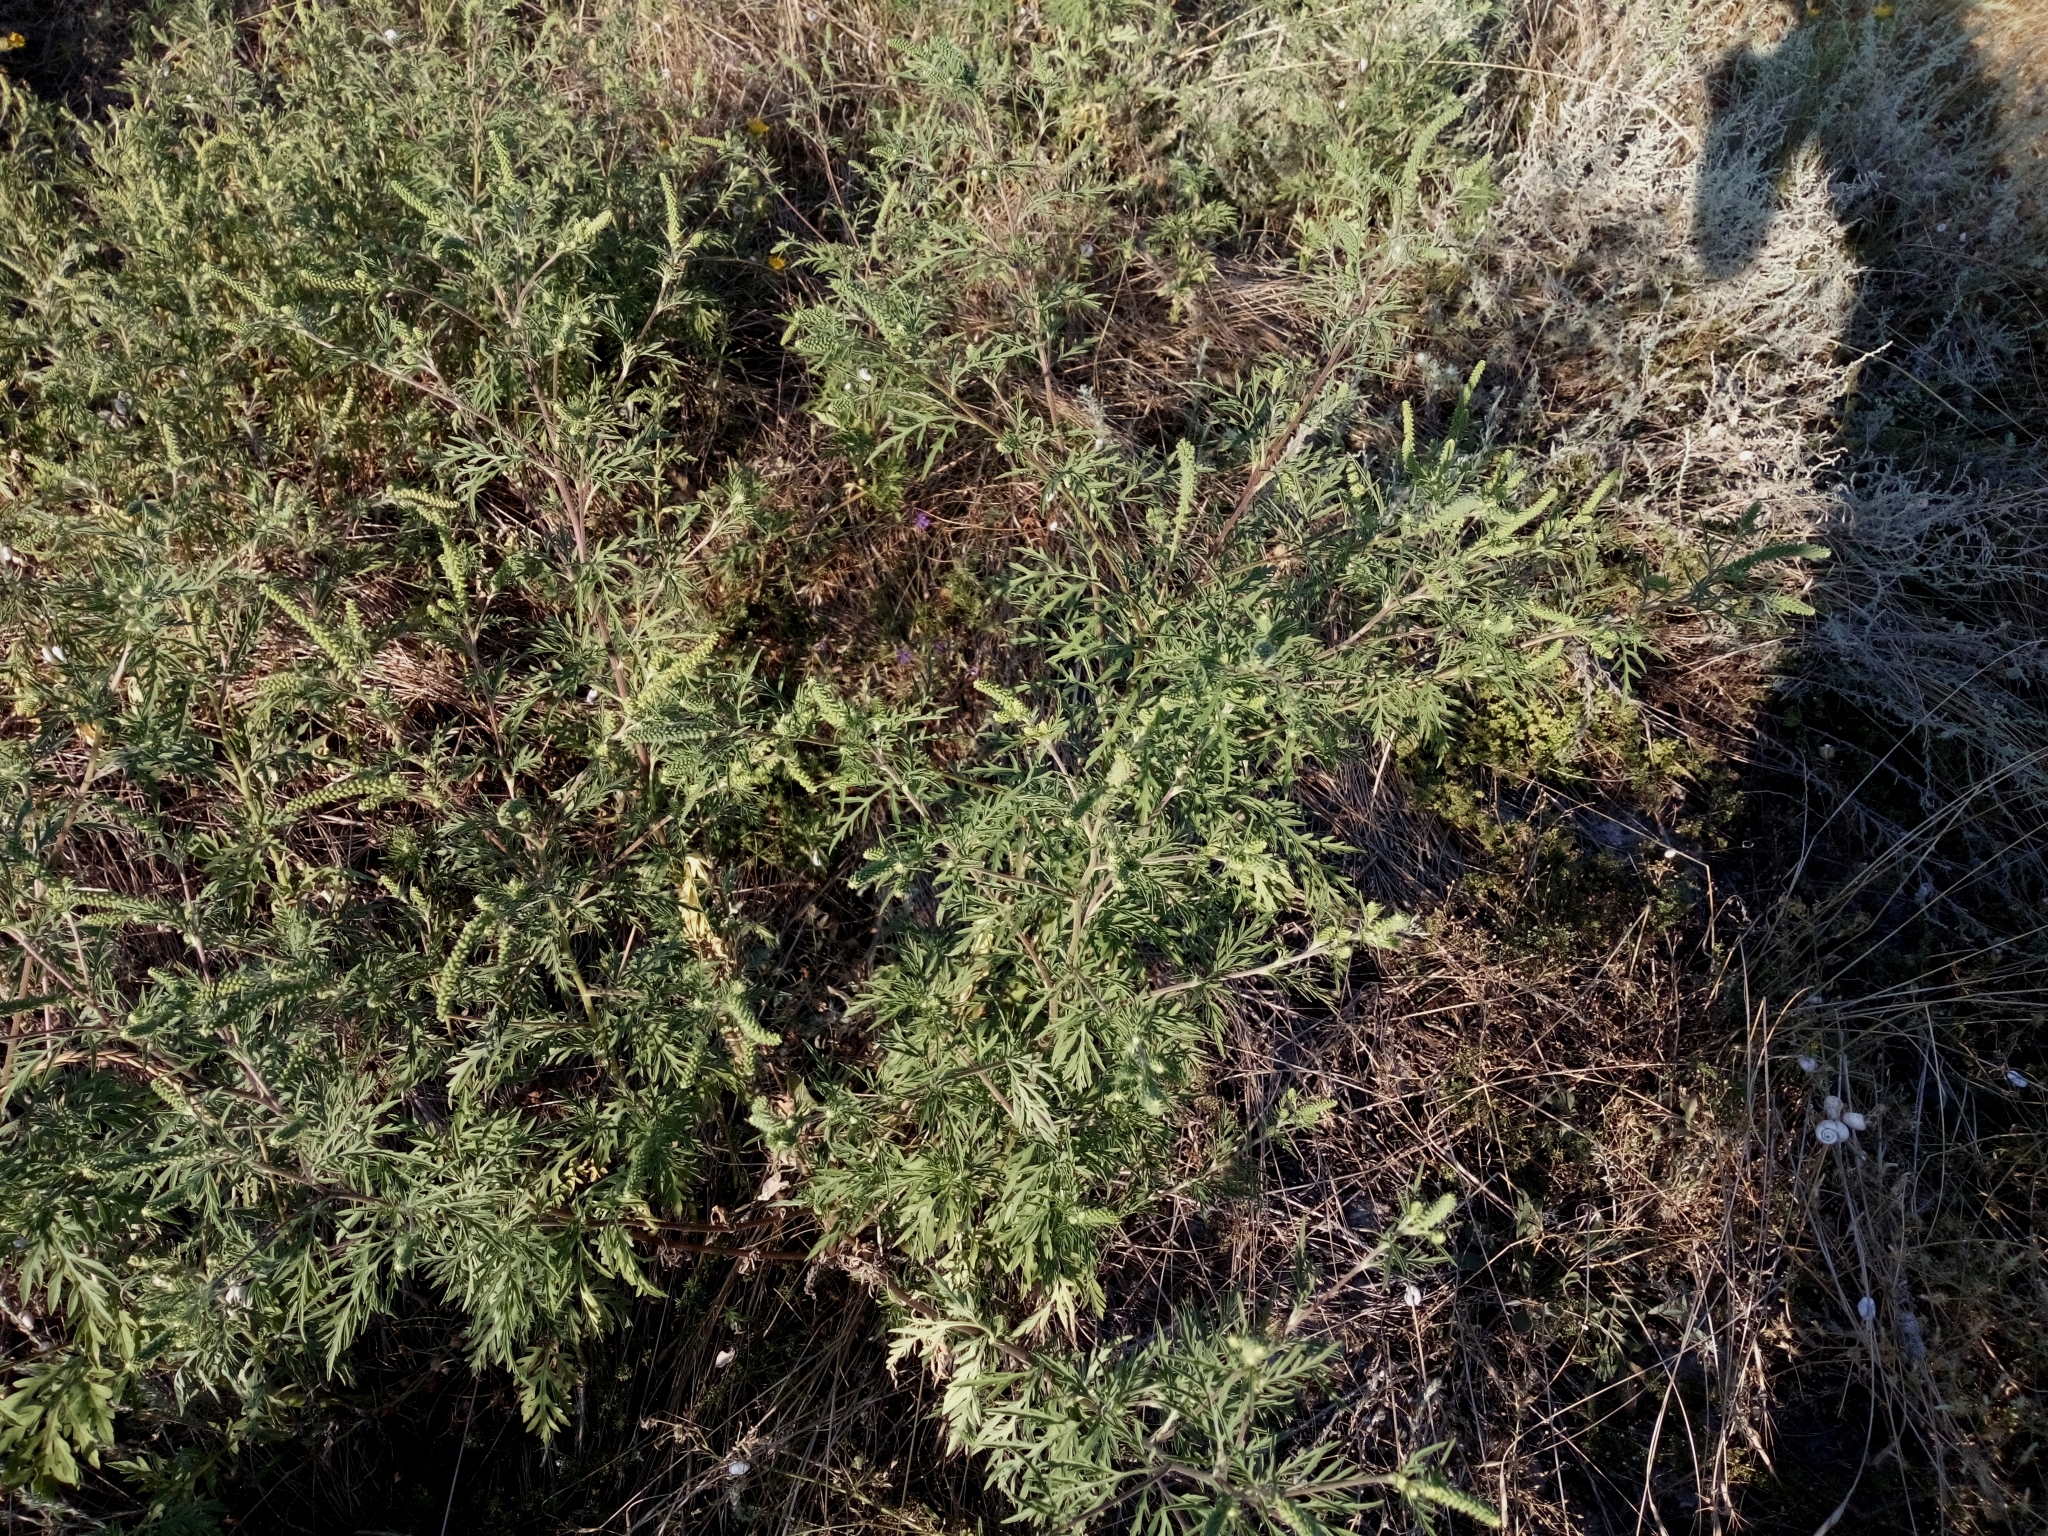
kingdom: Plantae
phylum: Tracheophyta
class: Magnoliopsida
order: Asterales
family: Asteraceae
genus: Ambrosia
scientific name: Ambrosia artemisiifolia
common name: Annual ragweed
